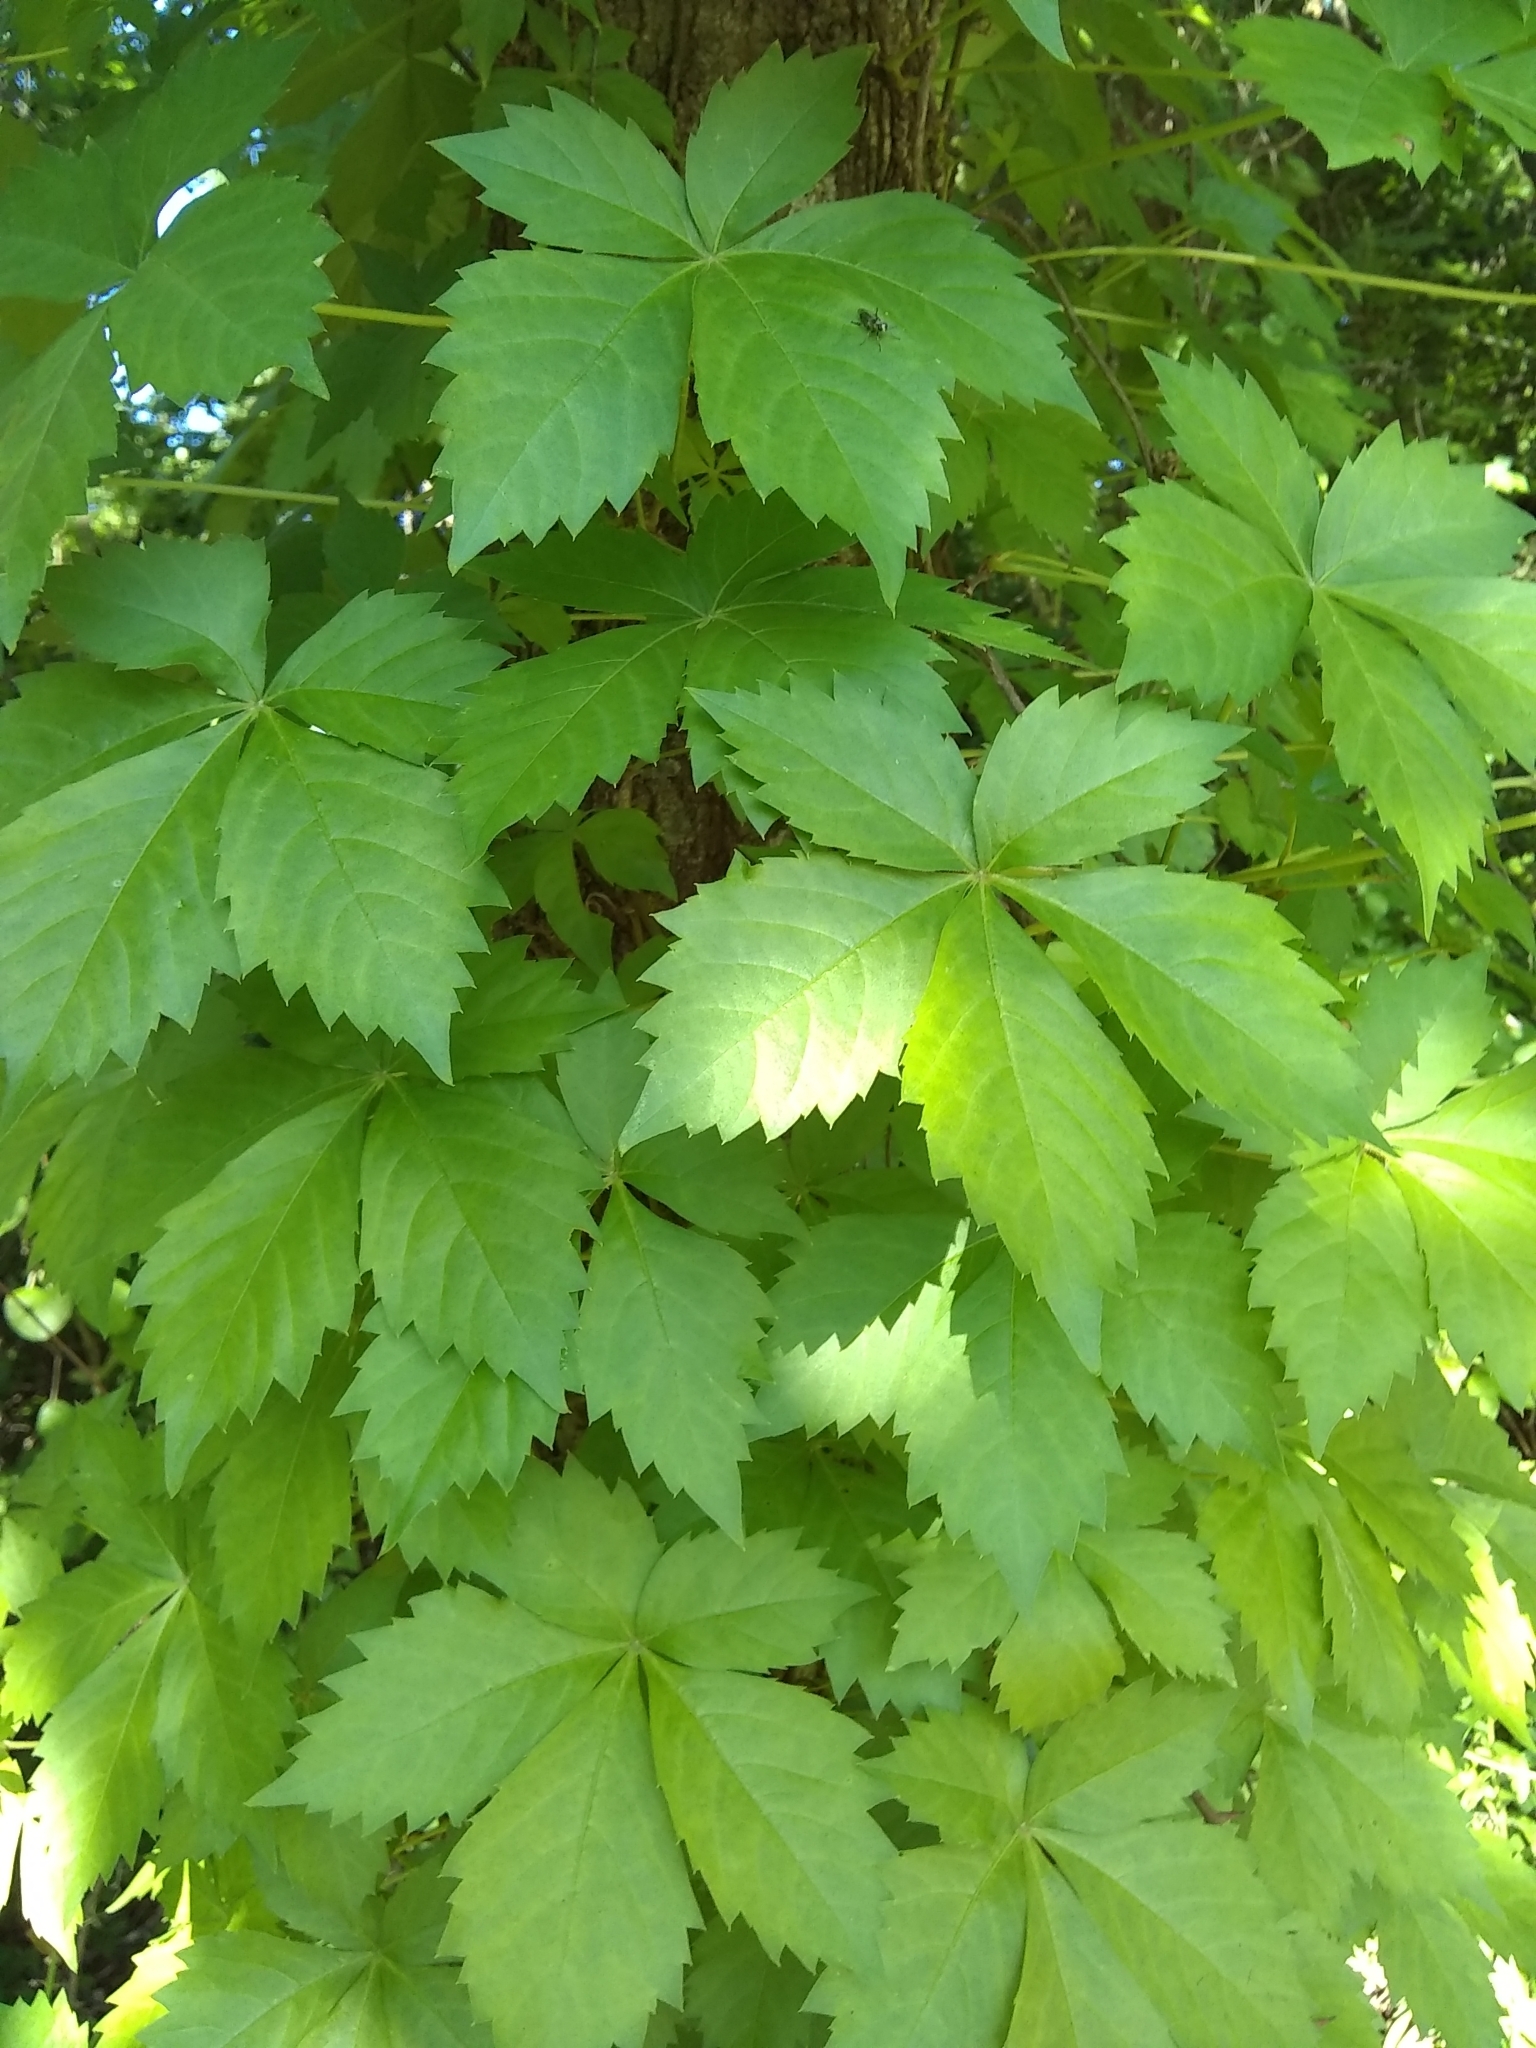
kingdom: Plantae
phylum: Tracheophyta
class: Magnoliopsida
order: Vitales
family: Vitaceae
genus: Parthenocissus
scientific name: Parthenocissus quinquefolia
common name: Virginia-creeper
